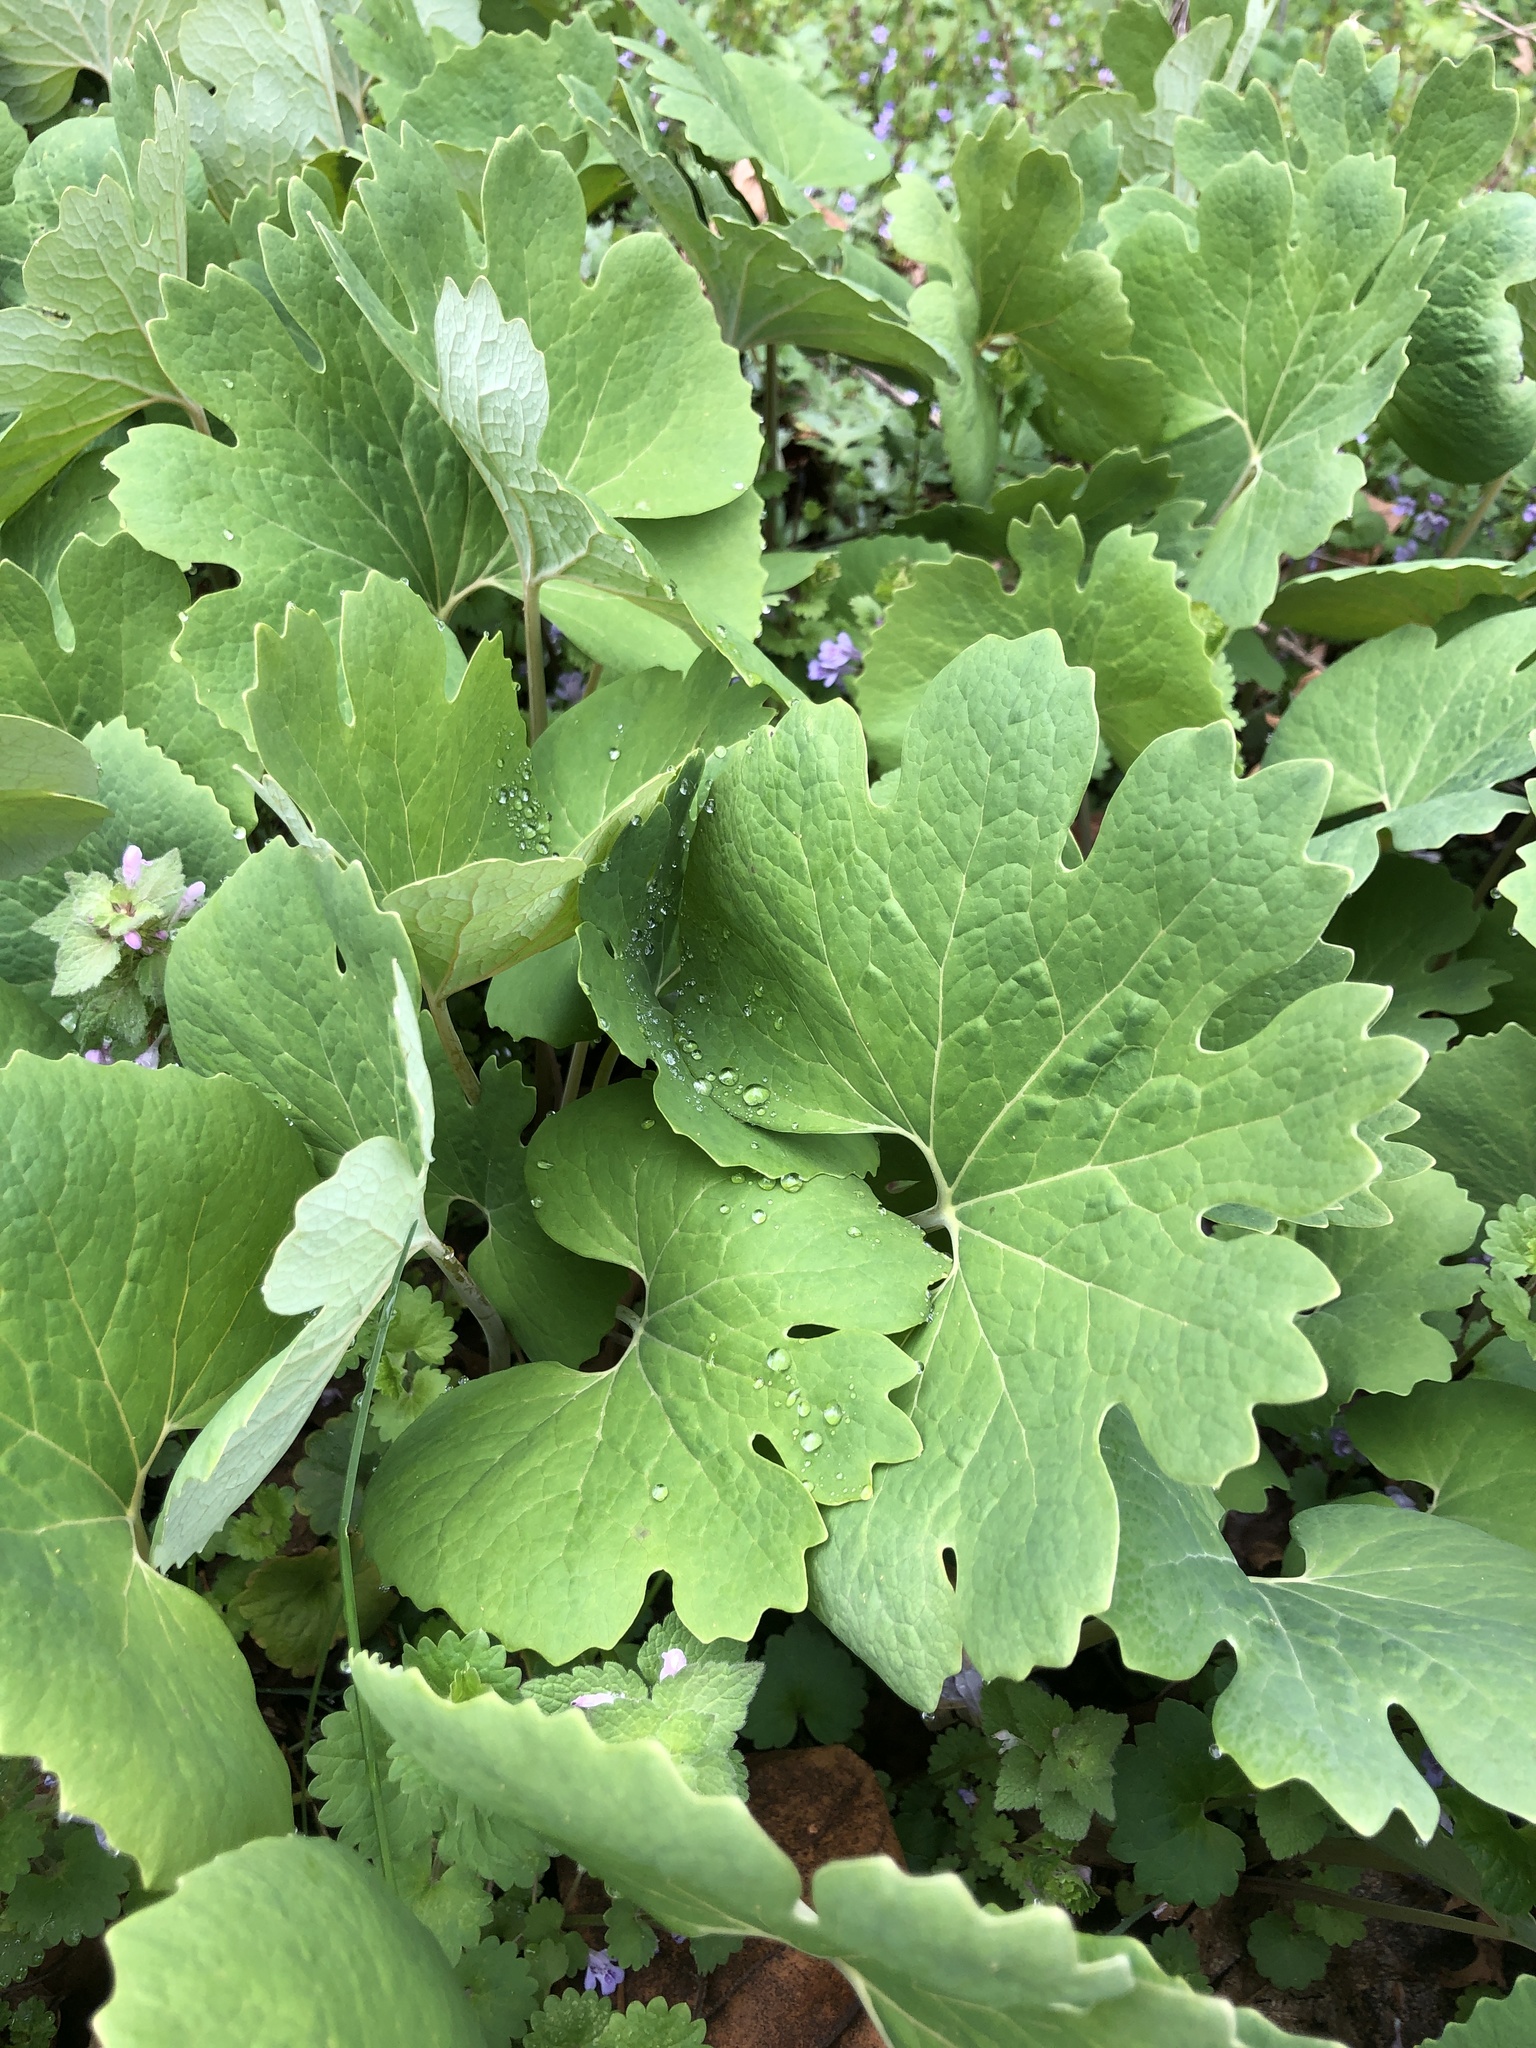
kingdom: Plantae
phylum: Tracheophyta
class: Magnoliopsida
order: Ranunculales
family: Papaveraceae
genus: Sanguinaria
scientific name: Sanguinaria canadensis
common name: Bloodroot
